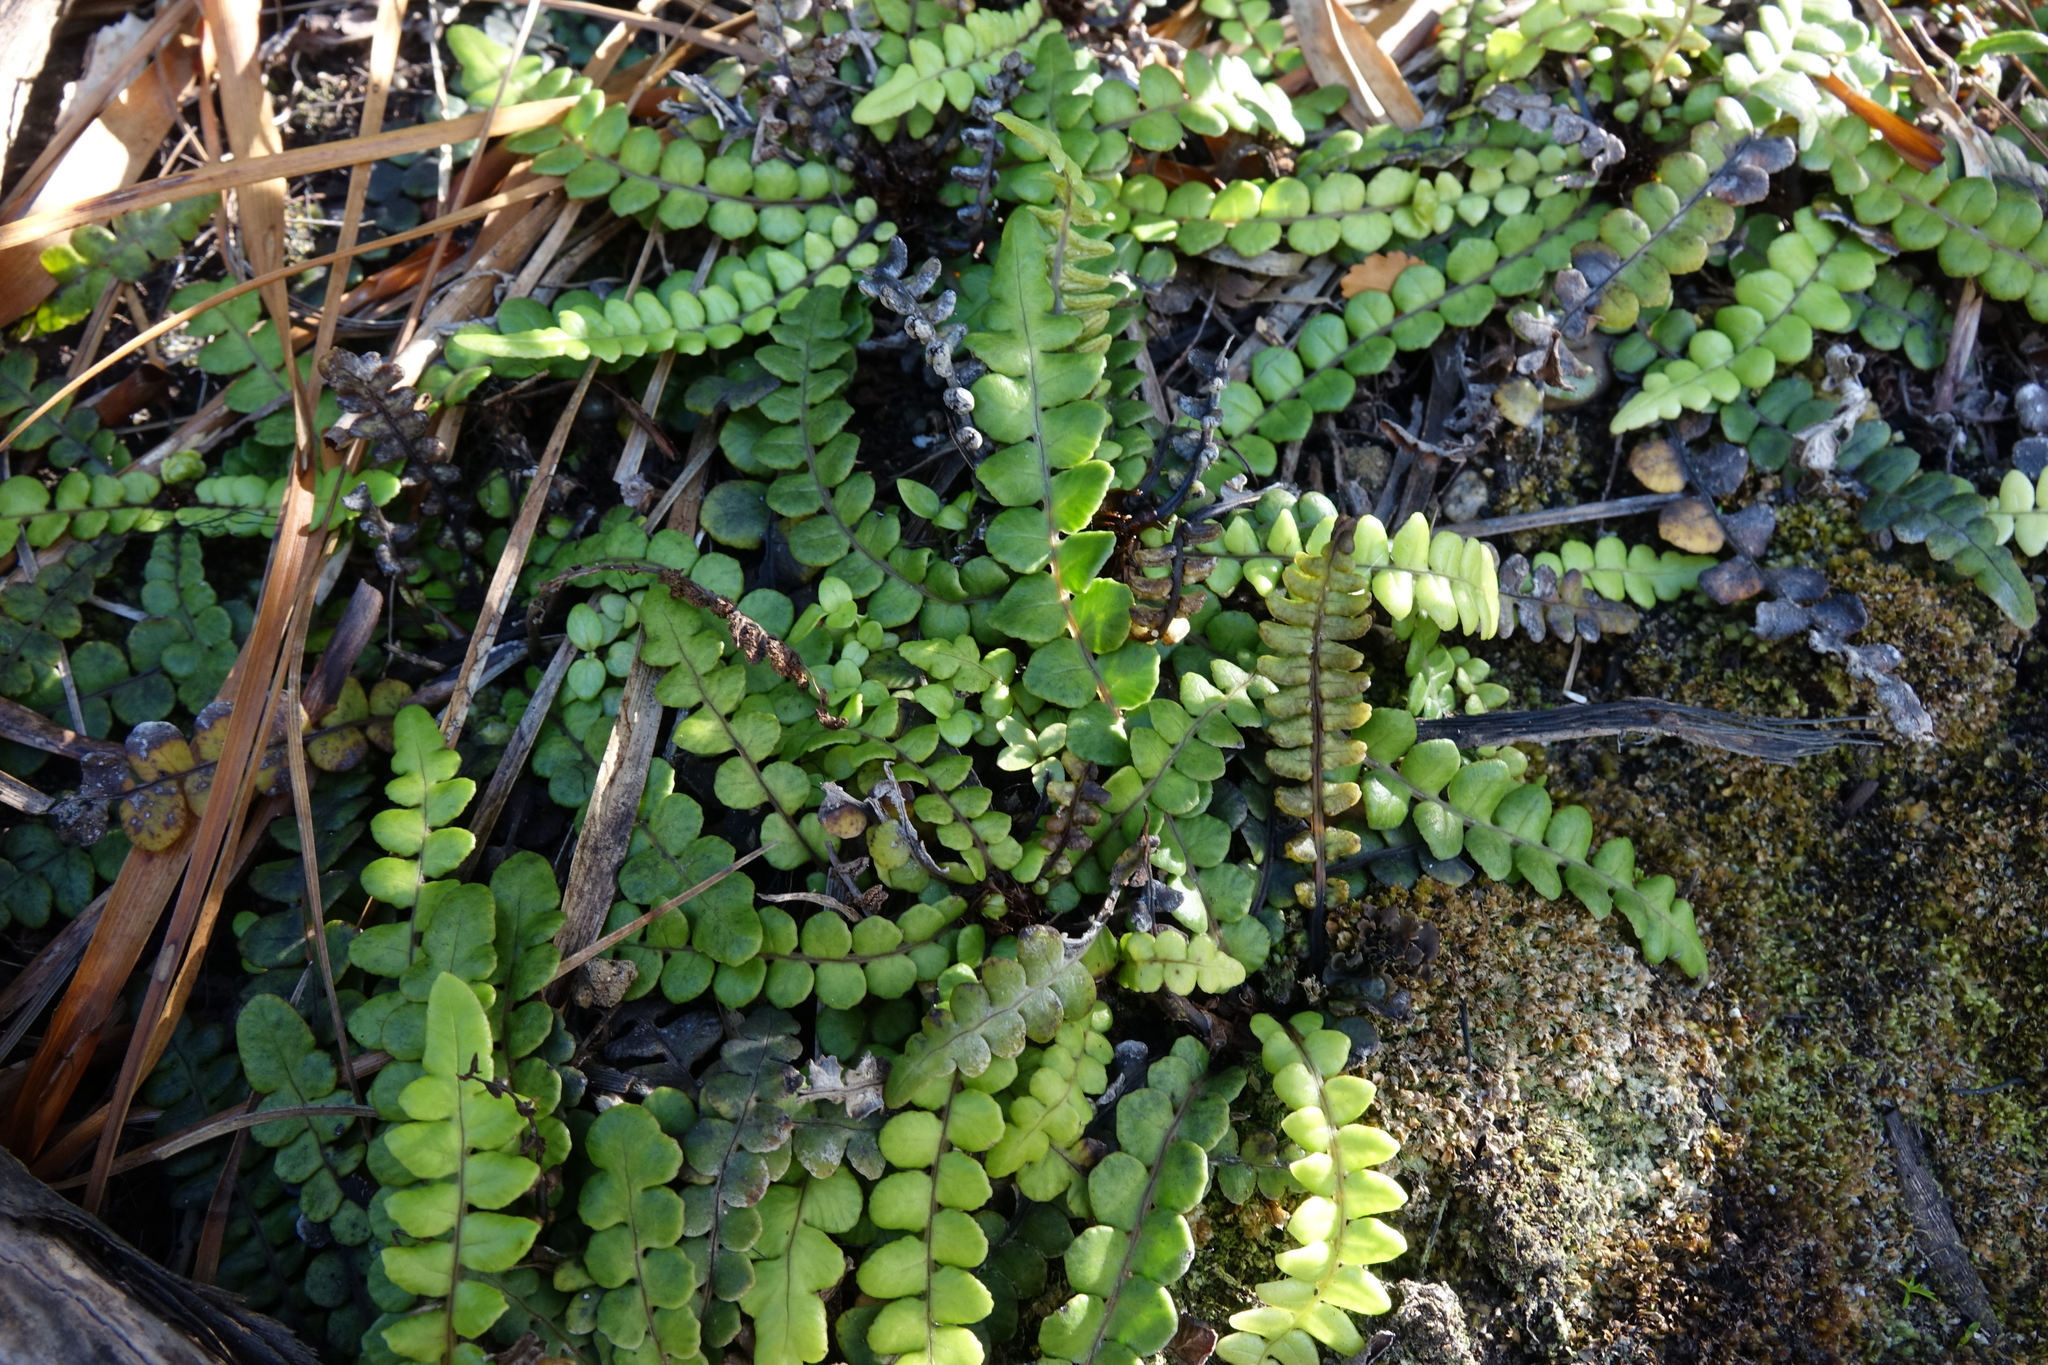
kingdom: Plantae
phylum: Tracheophyta
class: Polypodiopsida
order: Polypodiales
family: Blechnaceae
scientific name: Blechnaceae
